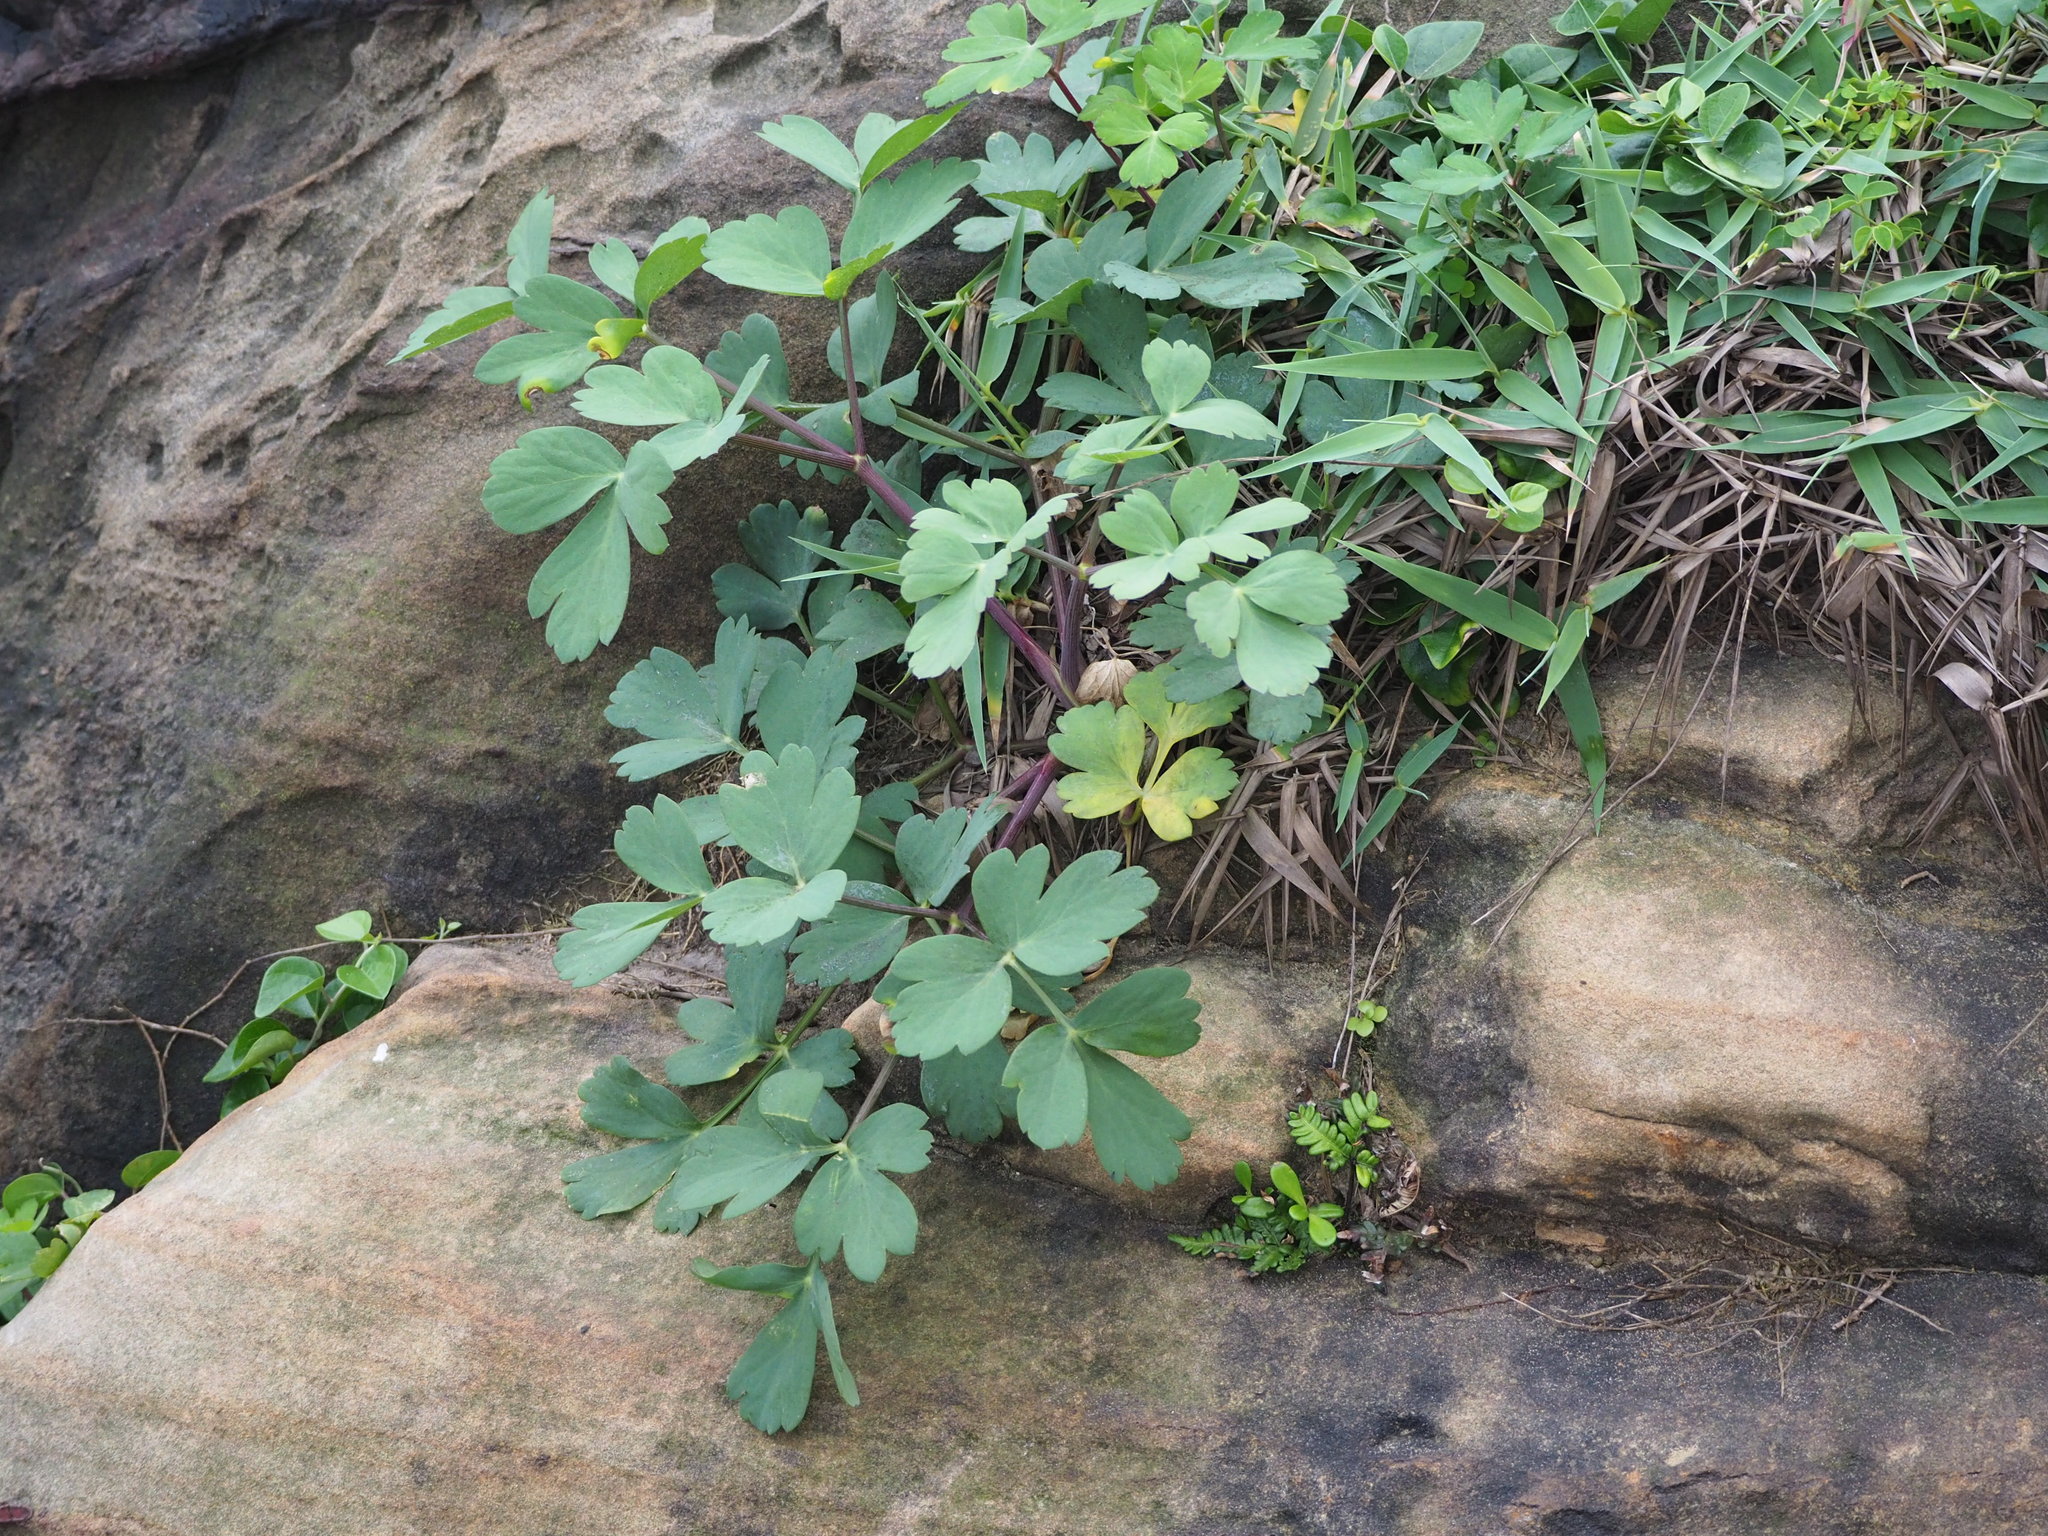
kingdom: Plantae
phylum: Tracheophyta
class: Magnoliopsida
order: Apiales
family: Apiaceae
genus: Peucedanum
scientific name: Peucedanum japonicum
